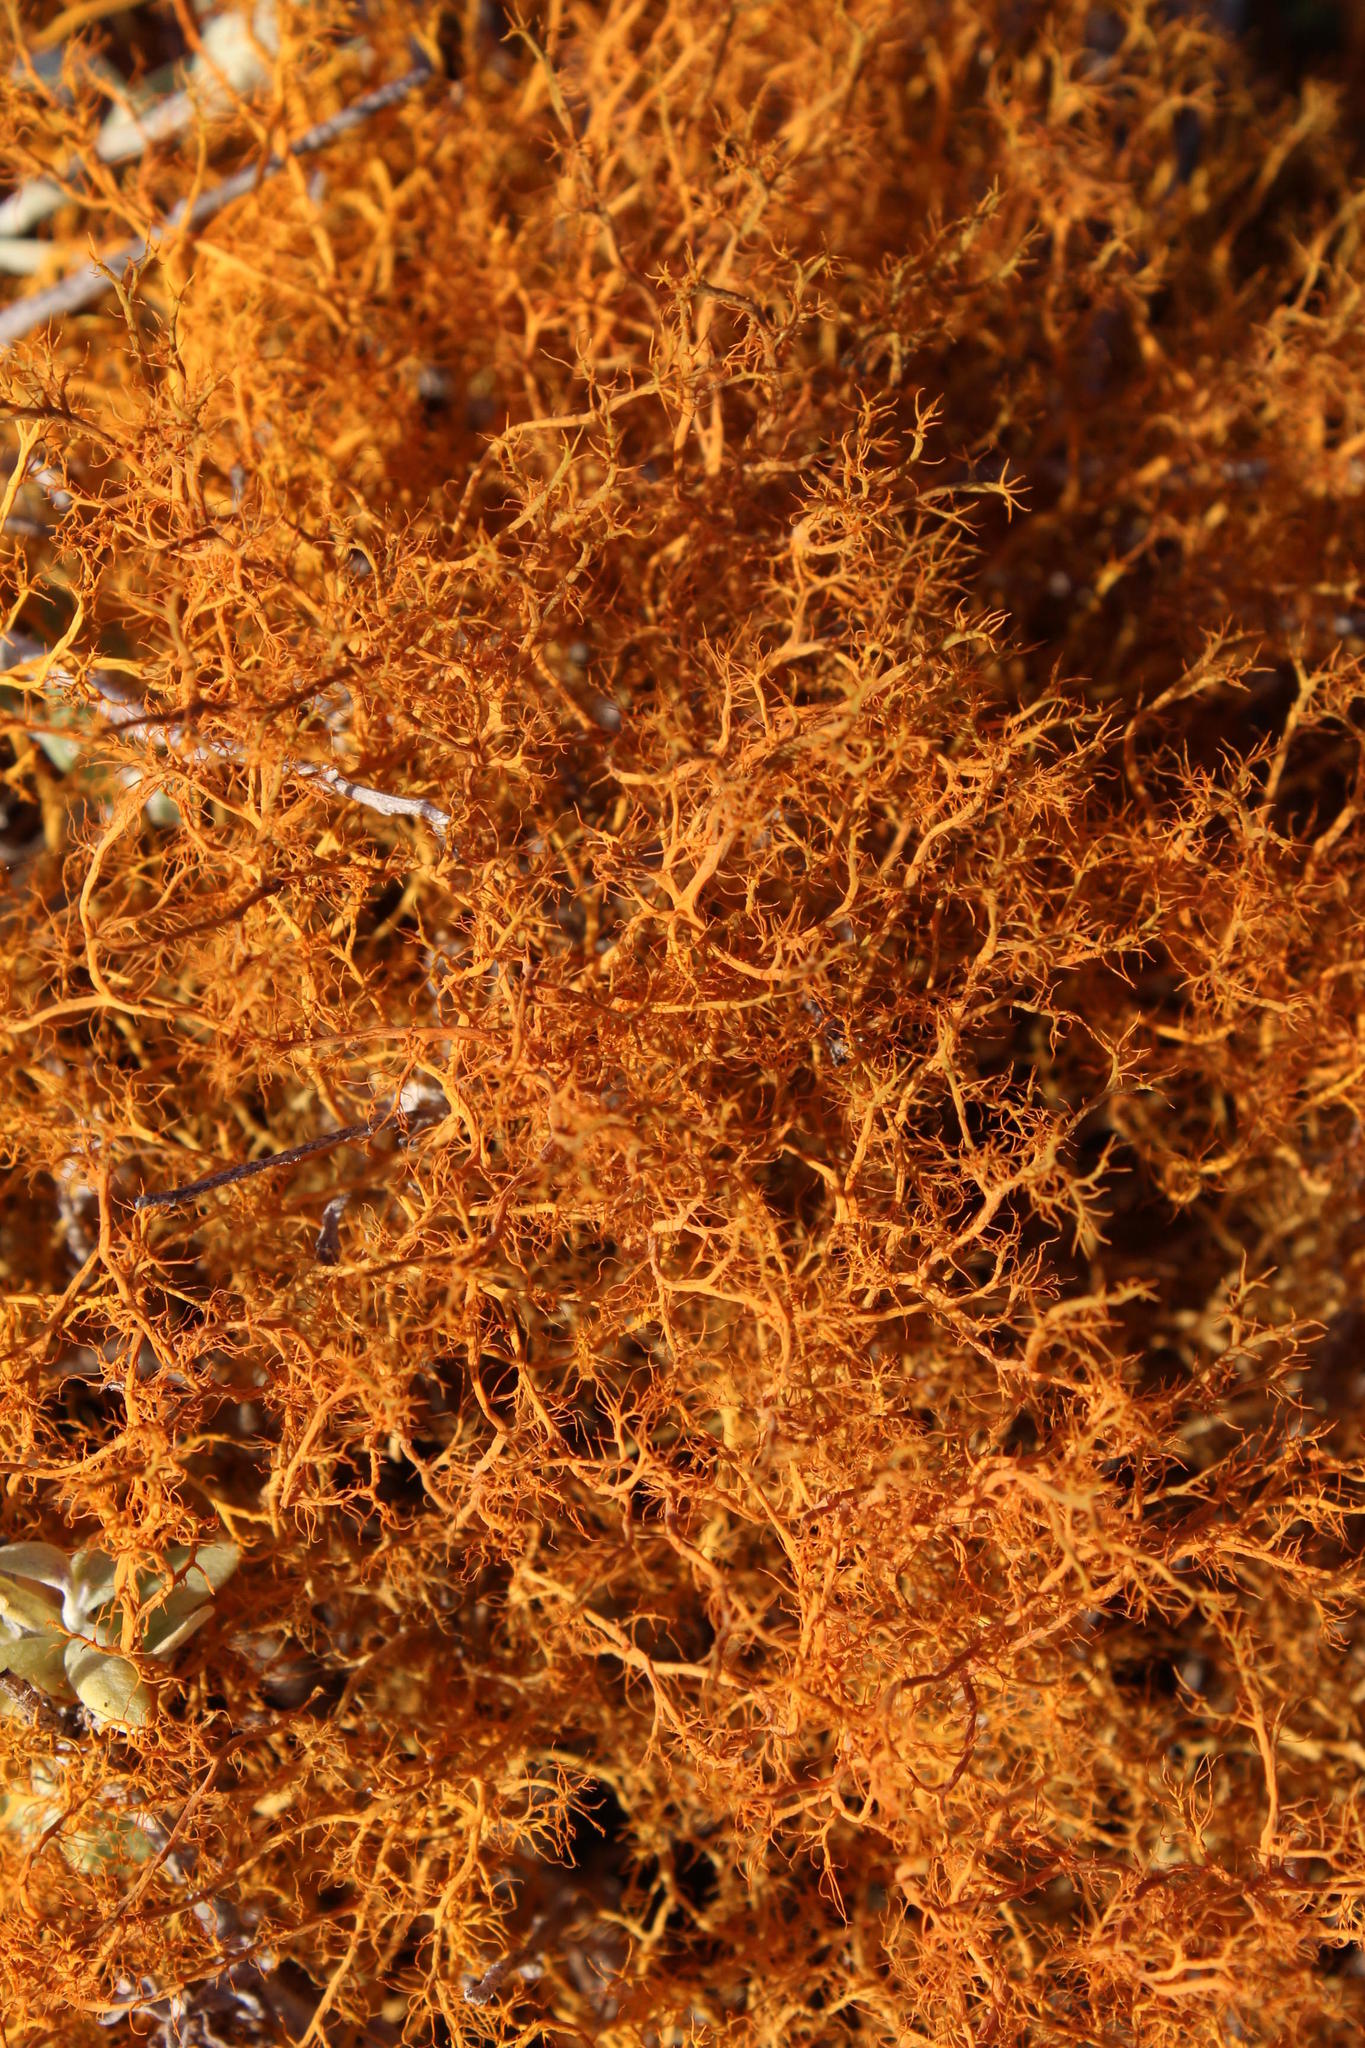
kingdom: Fungi
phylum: Ascomycota
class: Lecanoromycetes
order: Teloschistales
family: Teloschistaceae
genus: Teloschistes
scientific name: Teloschistes capensis
